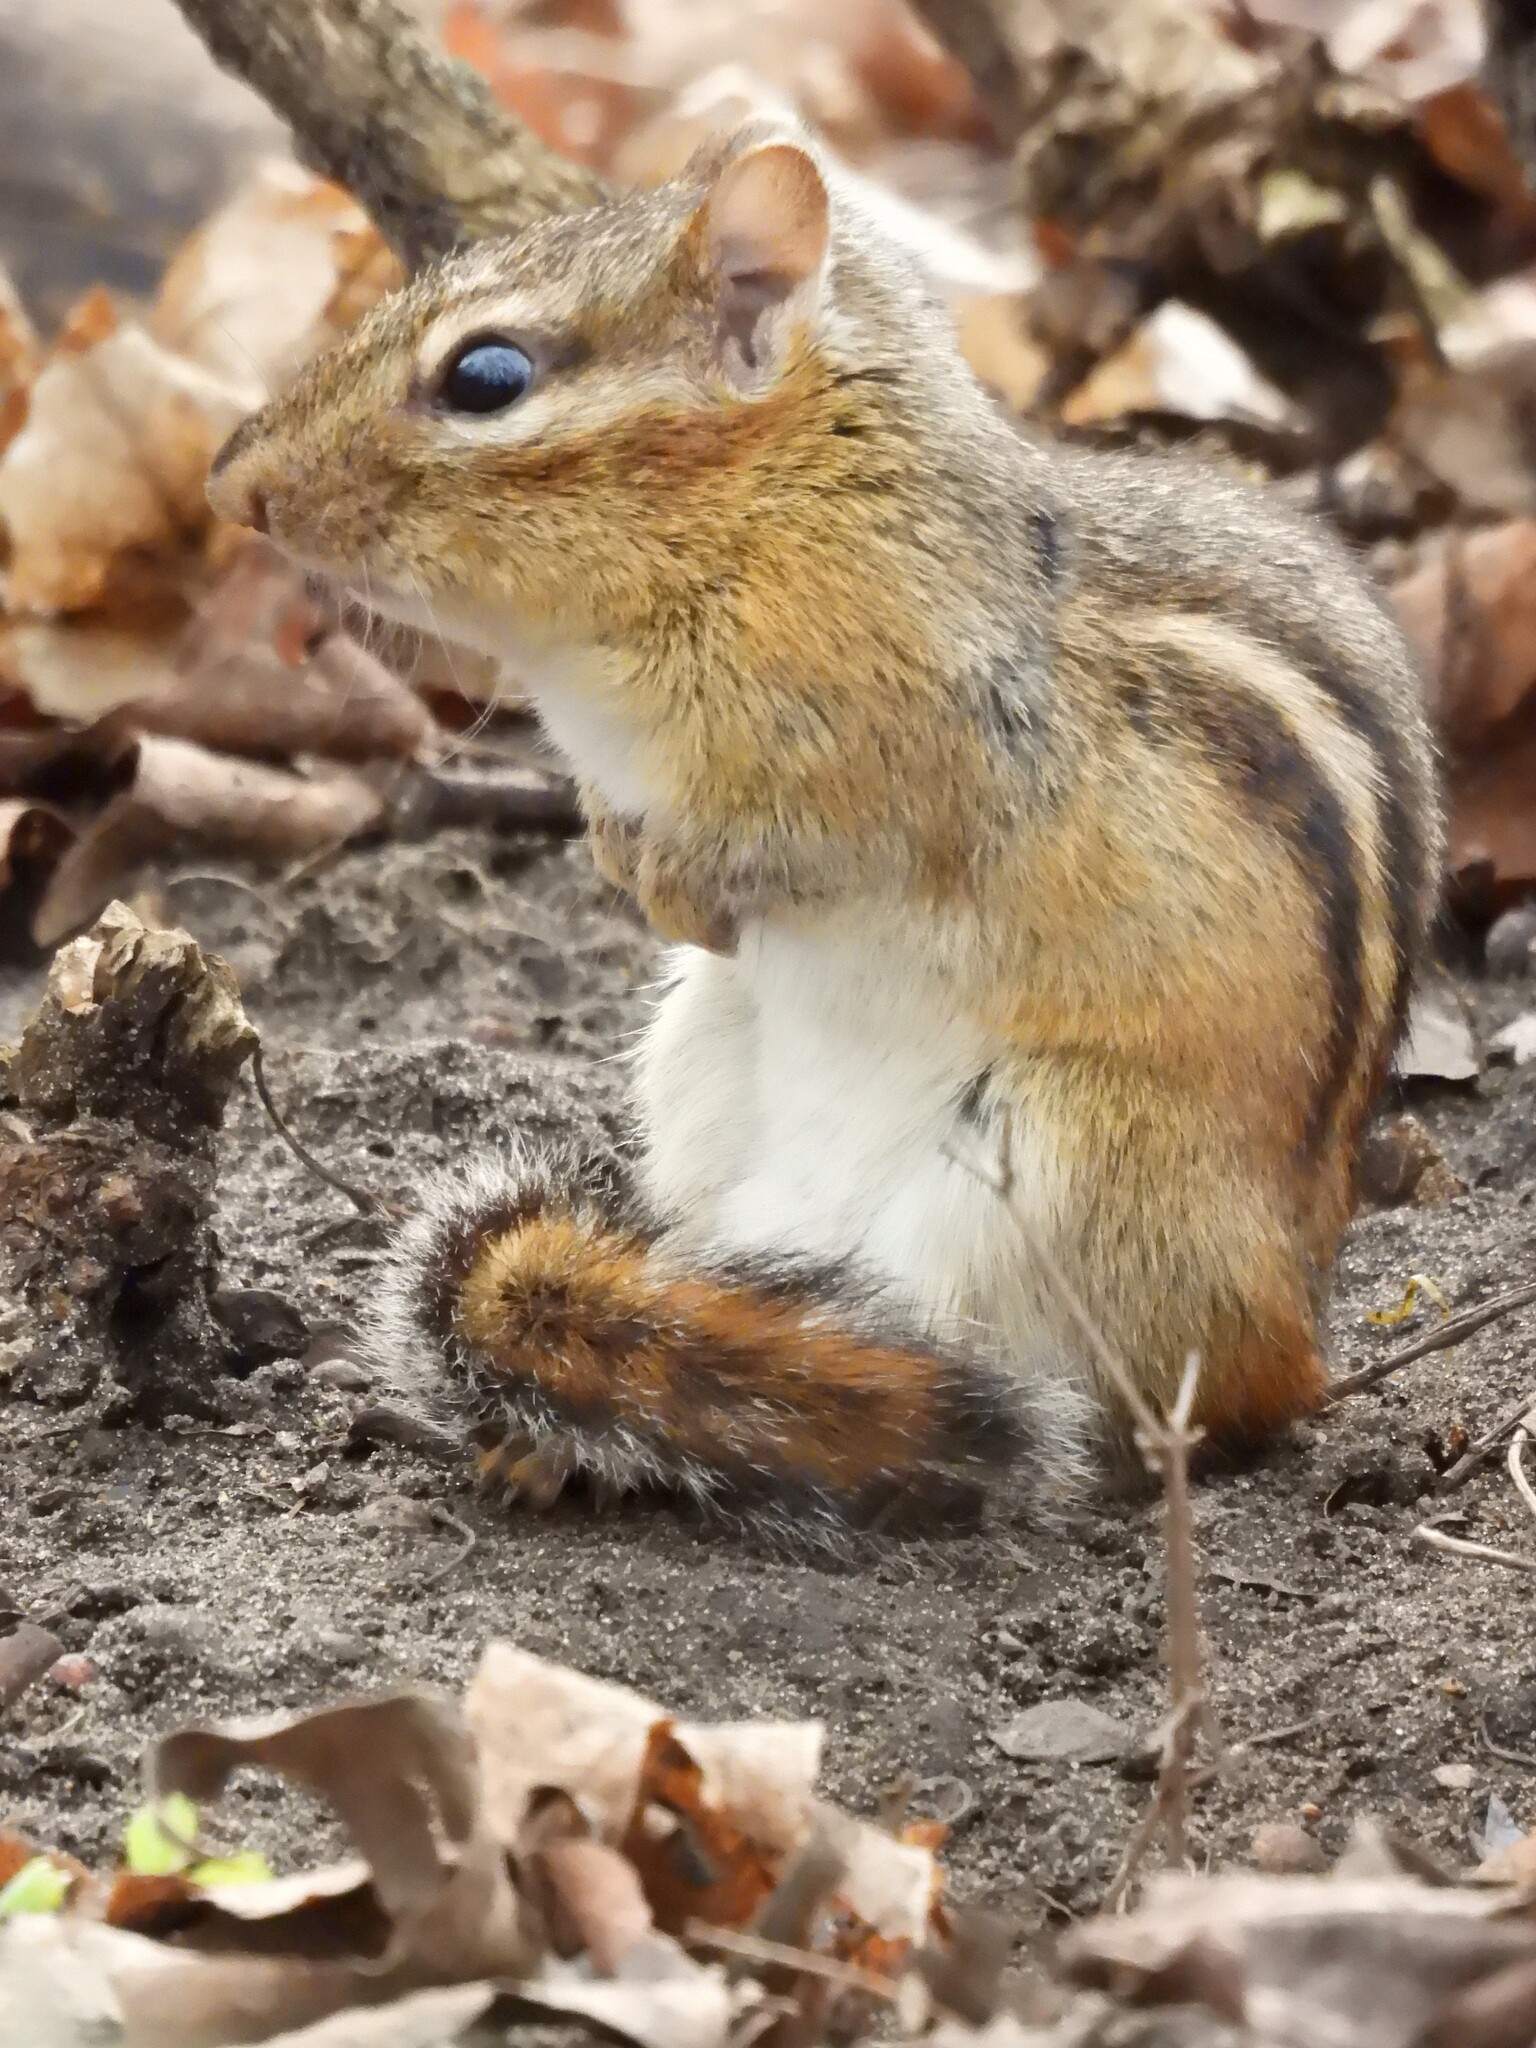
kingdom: Animalia
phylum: Chordata
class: Mammalia
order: Rodentia
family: Sciuridae
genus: Tamias
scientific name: Tamias striatus
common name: Eastern chipmunk
